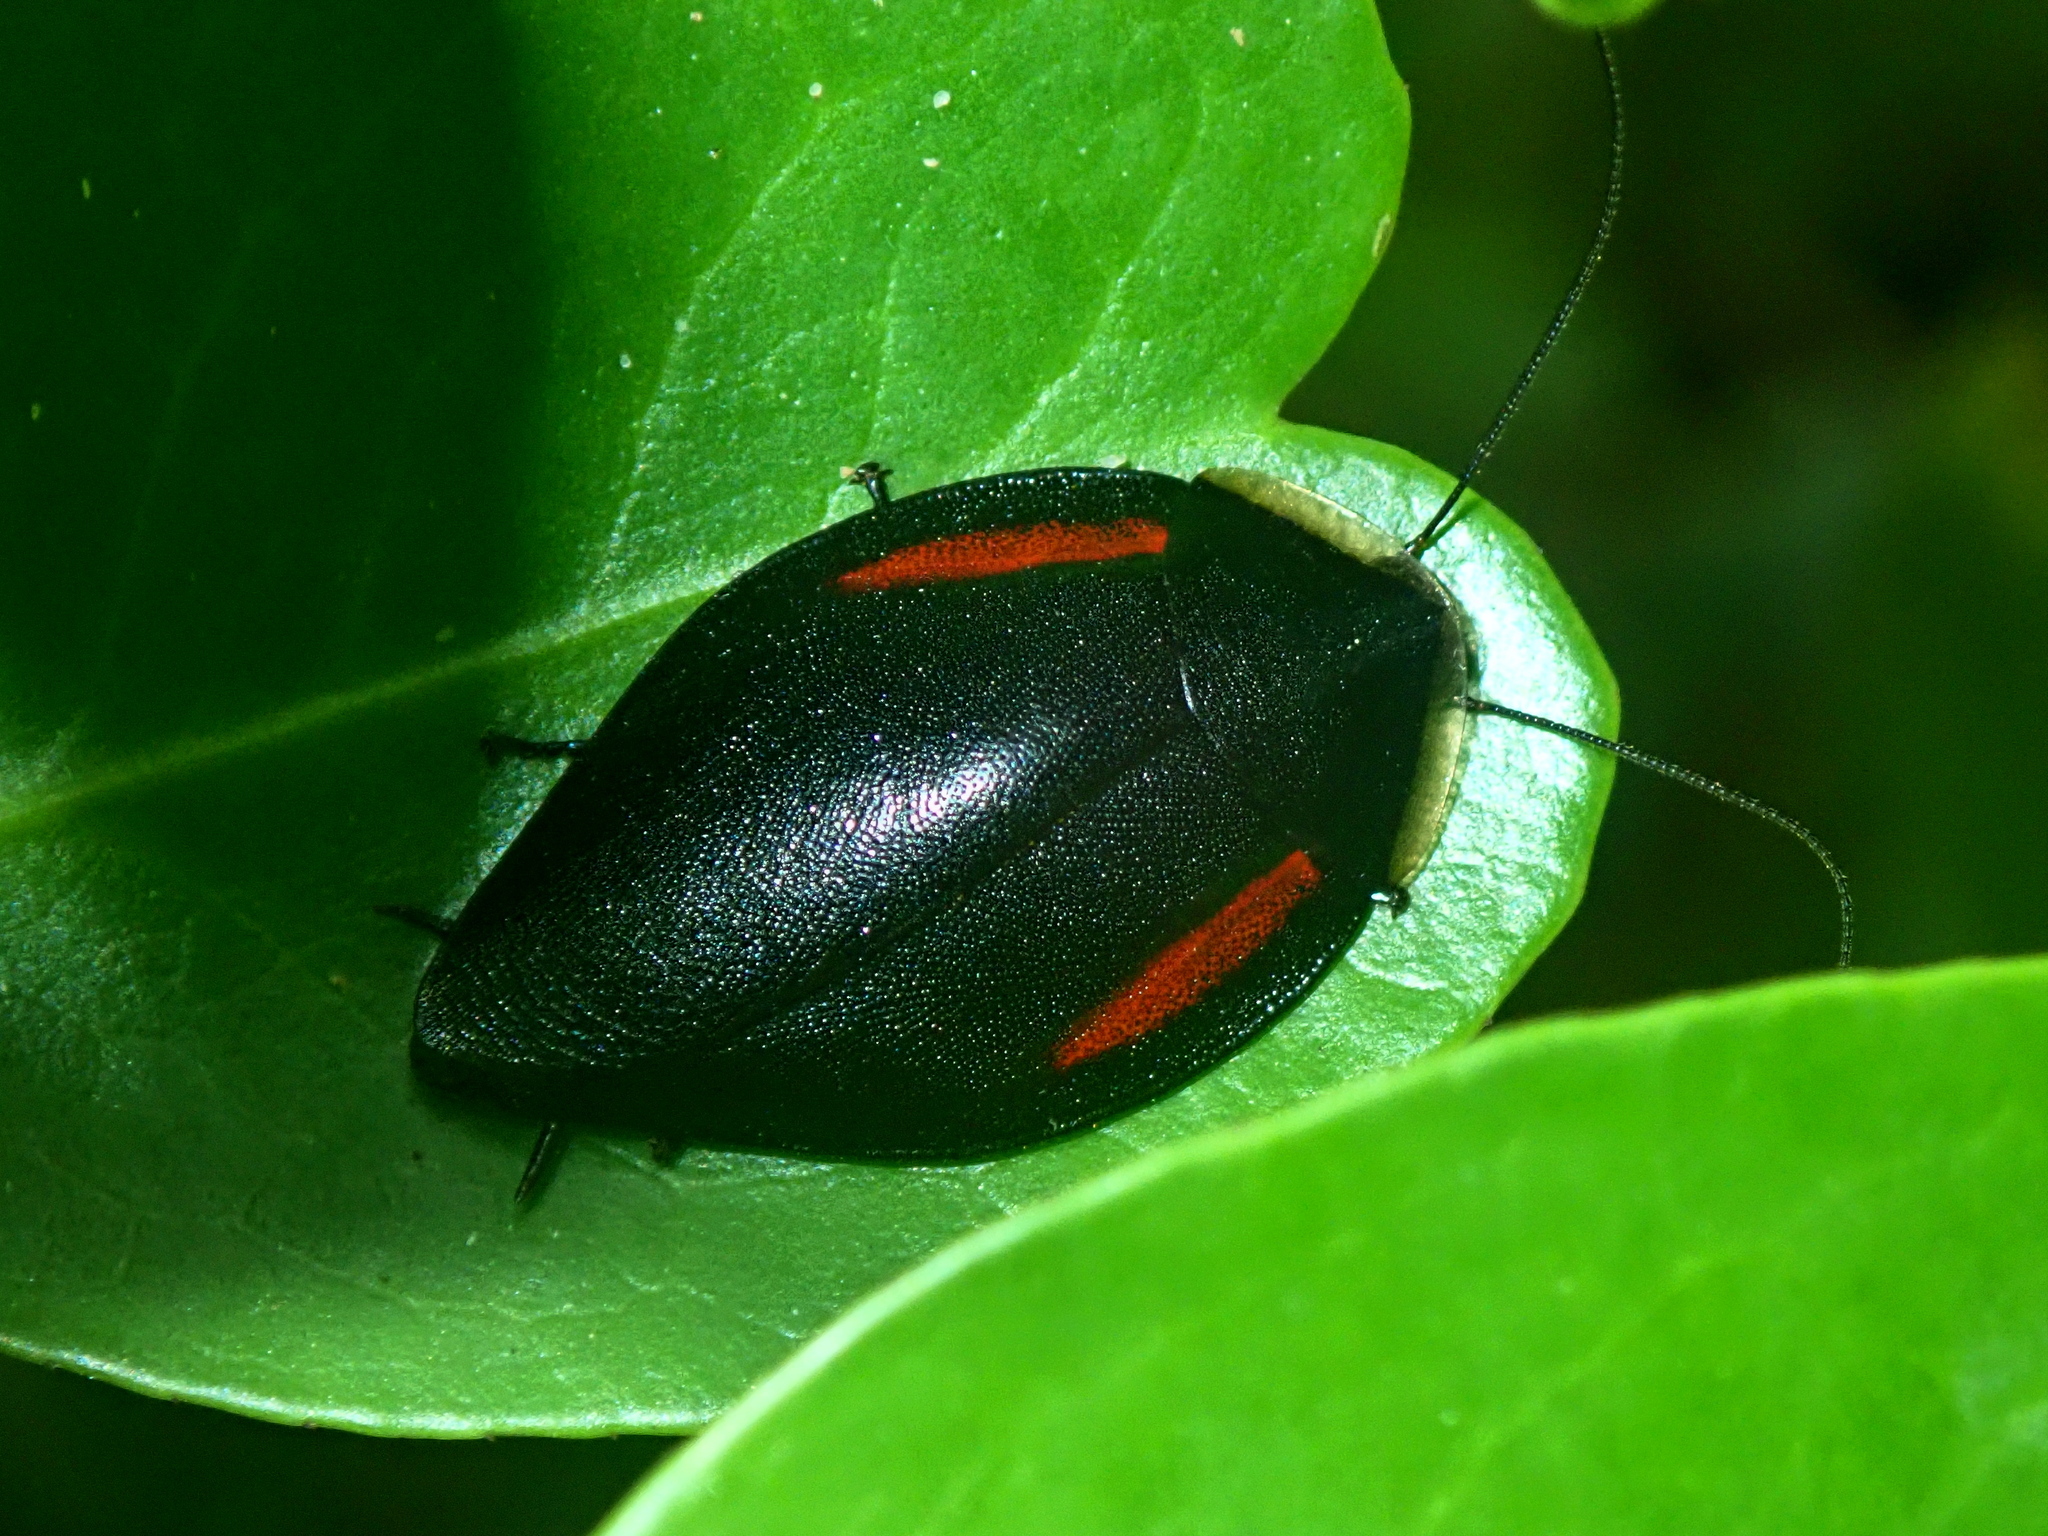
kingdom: Animalia
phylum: Arthropoda
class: Insecta
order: Blattodea
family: Blaberidae
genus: Phoraspis
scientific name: Phoraspis brachytaenia
